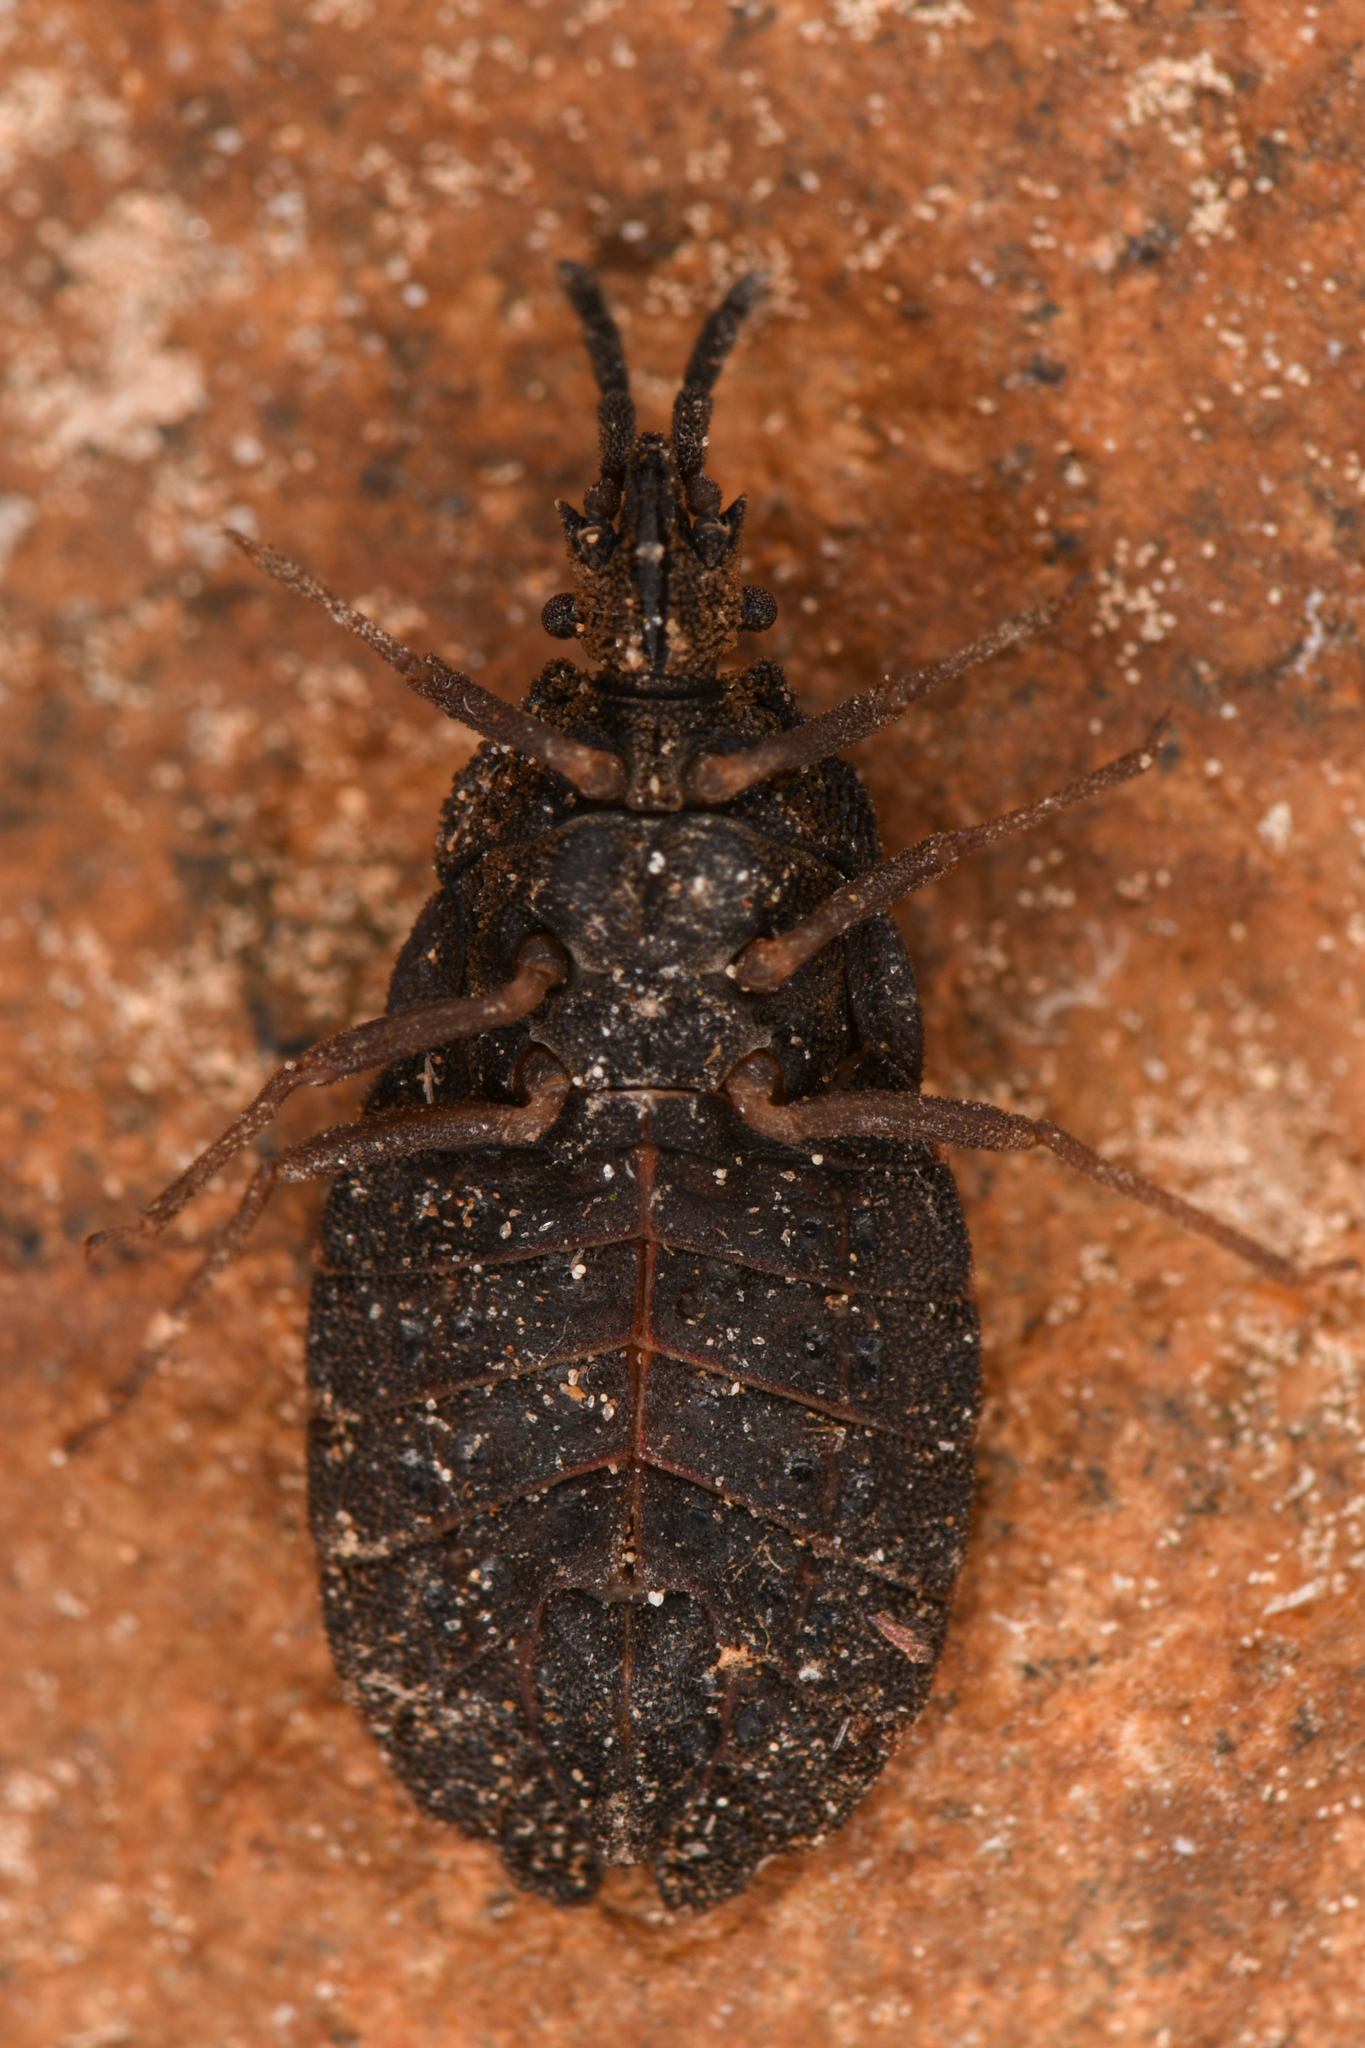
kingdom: Animalia
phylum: Arthropoda
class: Insecta
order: Hemiptera
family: Aradidae
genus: Aradus
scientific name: Aradus heidemanni
